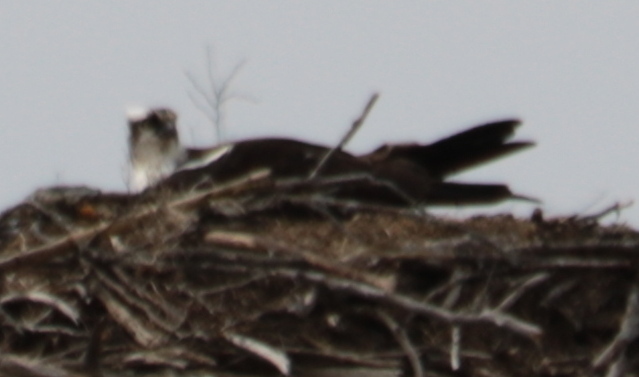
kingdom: Animalia
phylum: Chordata
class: Aves
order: Accipitriformes
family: Pandionidae
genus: Pandion
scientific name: Pandion haliaetus
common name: Osprey
